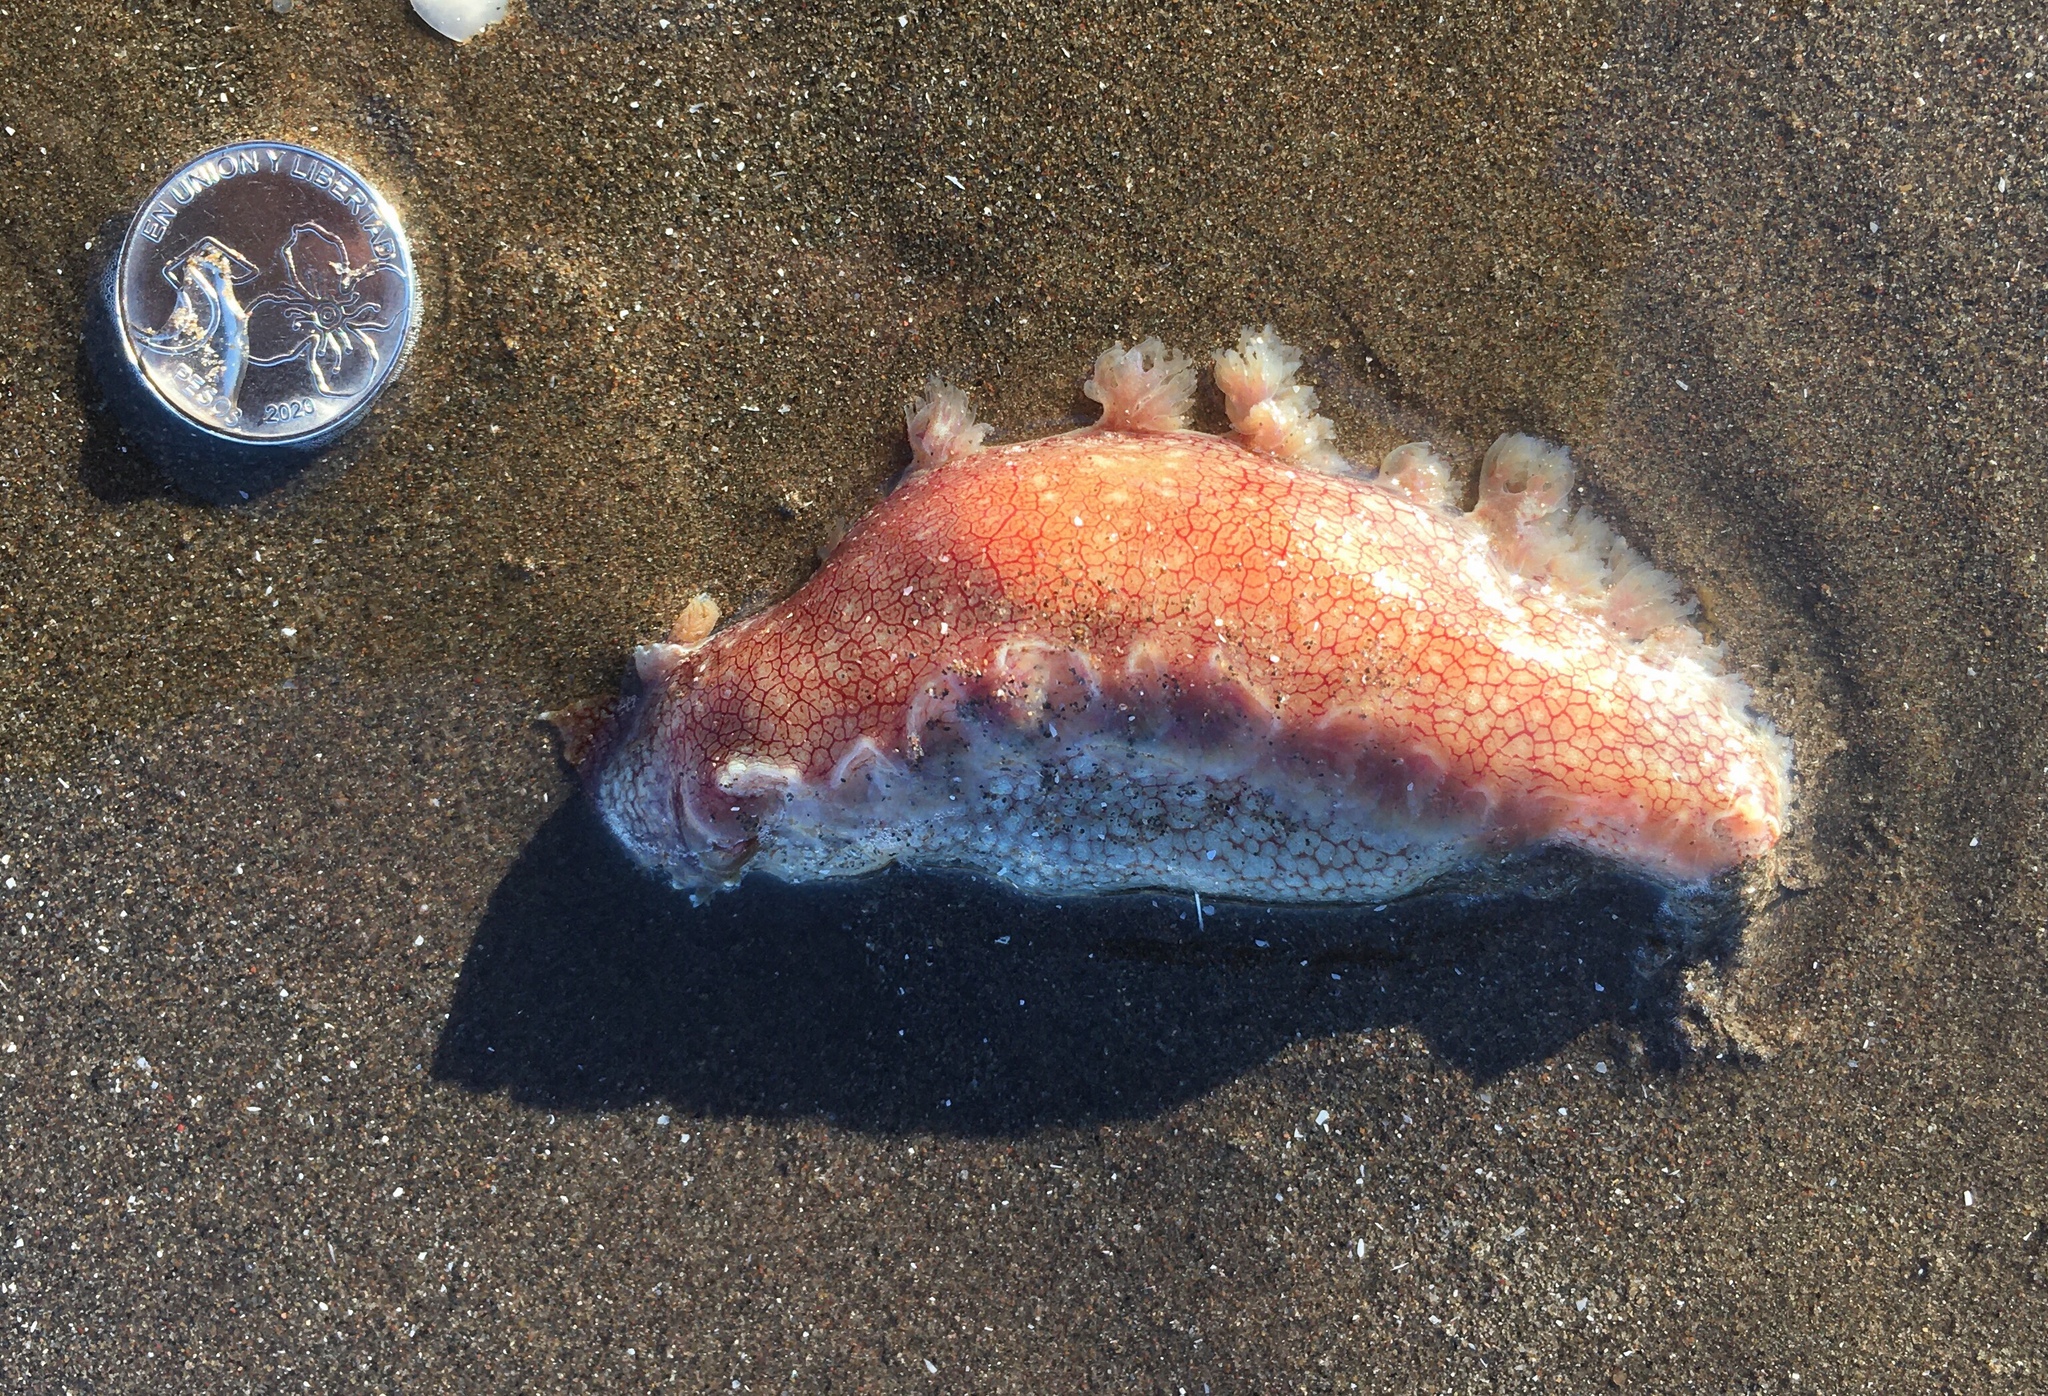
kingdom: Animalia
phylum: Mollusca
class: Gastropoda
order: Nudibranchia
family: Tritoniidae
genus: Marionia
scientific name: Marionia cucullata
